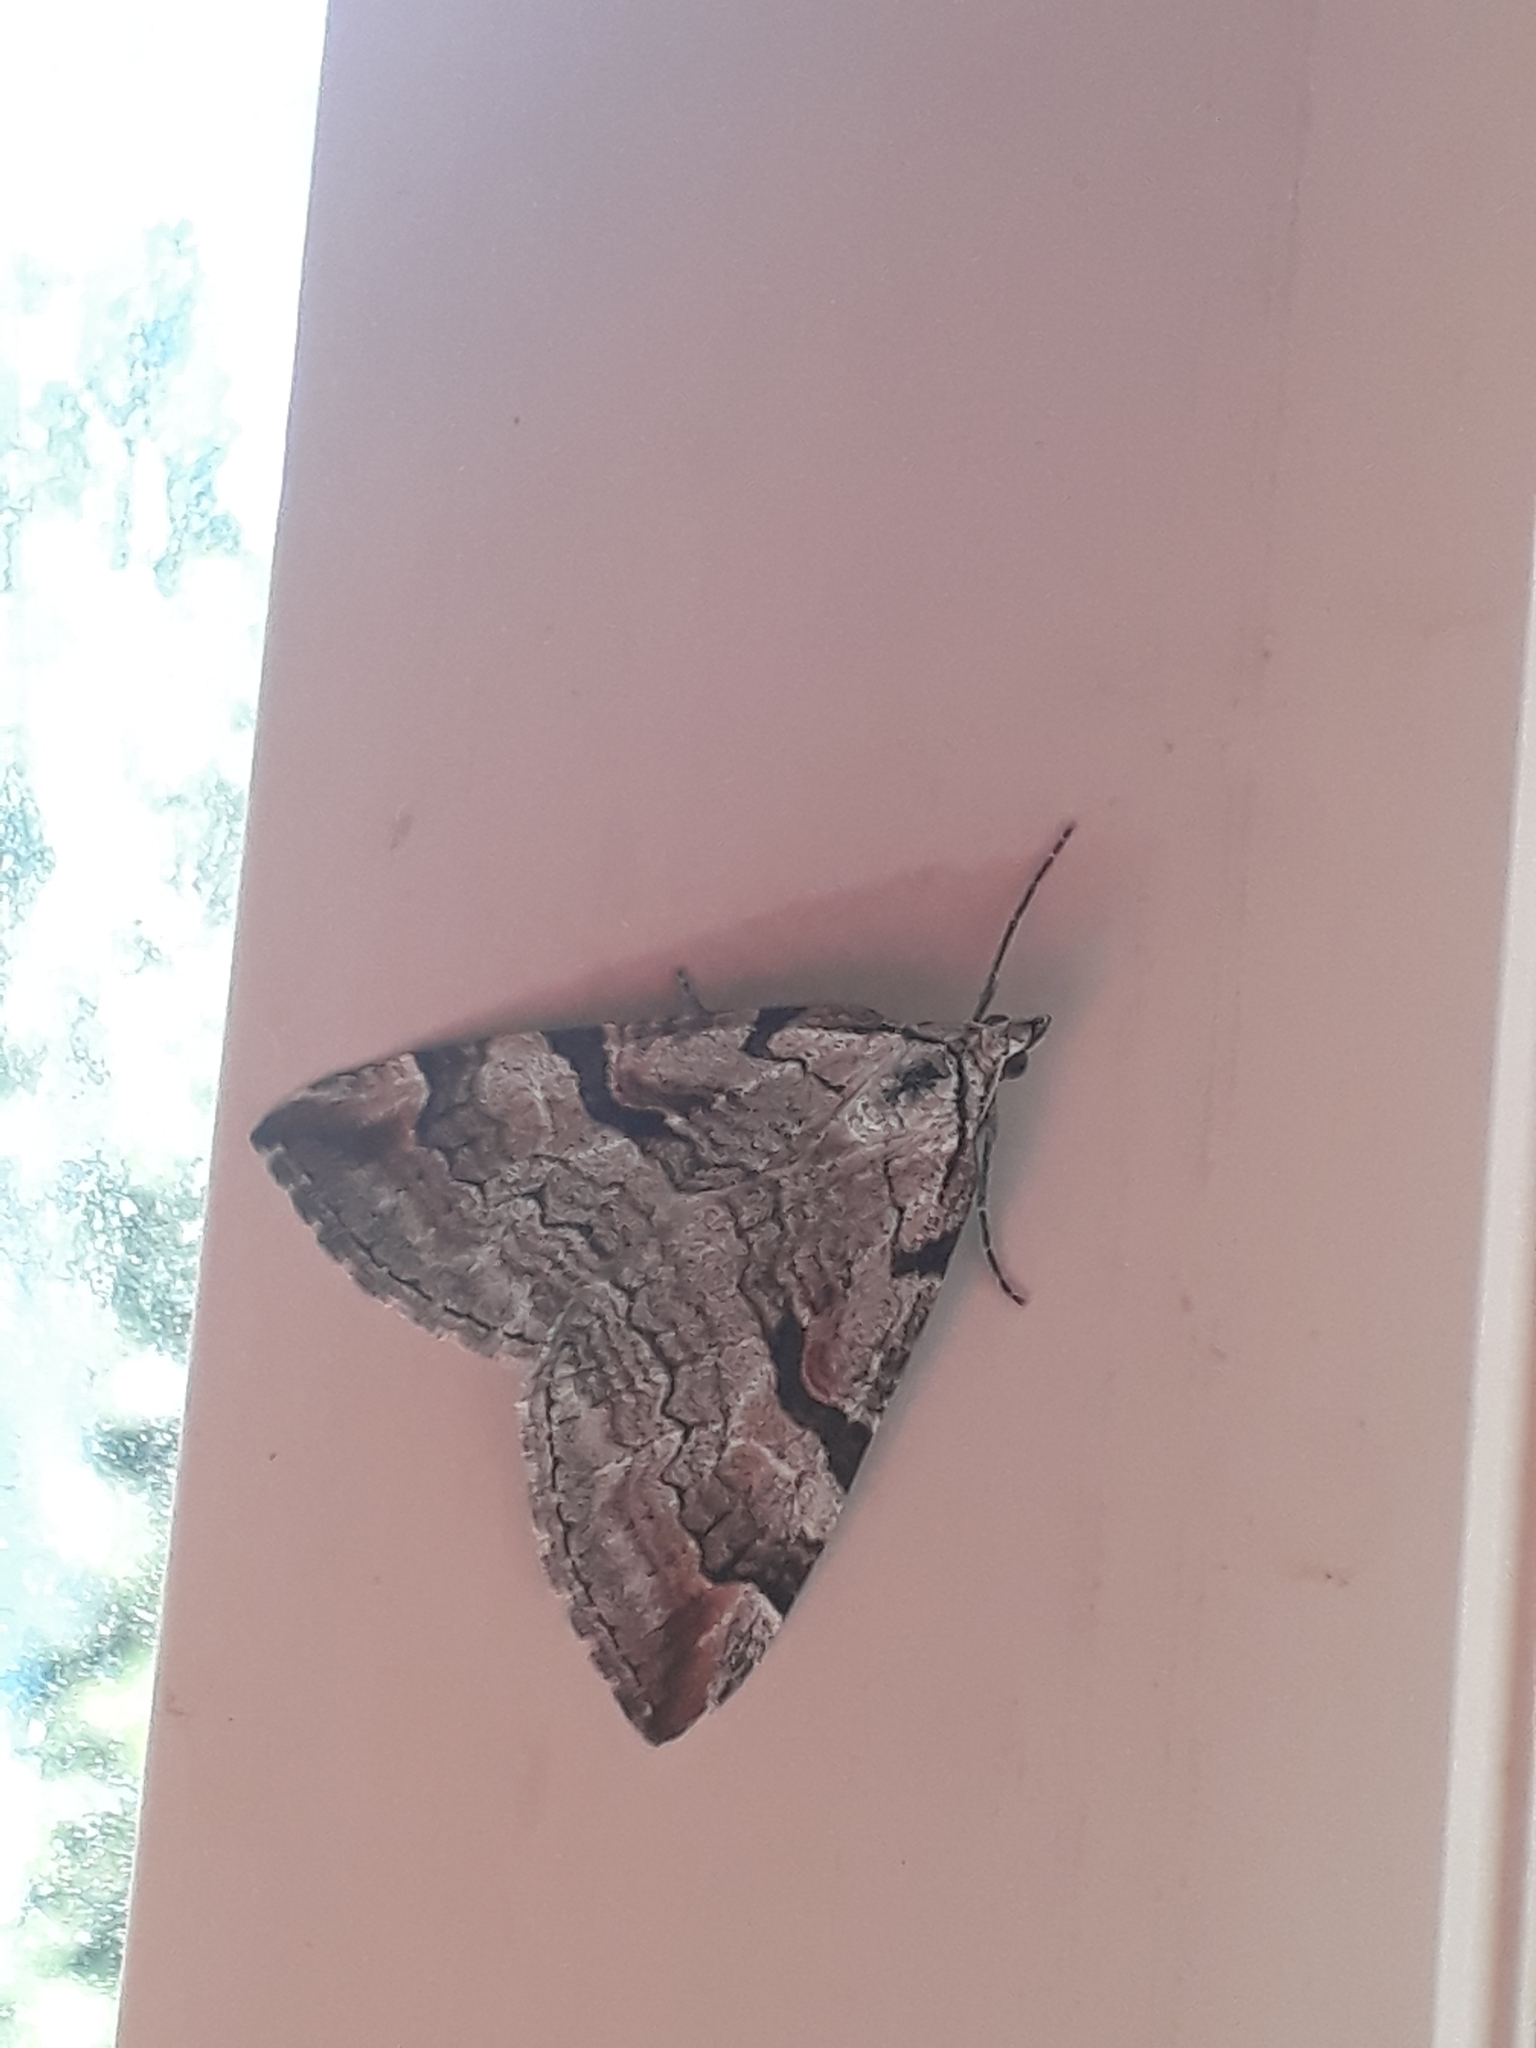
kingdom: Animalia
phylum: Arthropoda
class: Insecta
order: Lepidoptera
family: Geometridae
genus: Aplocera
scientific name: Aplocera praeformata
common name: Purple treble-bar
